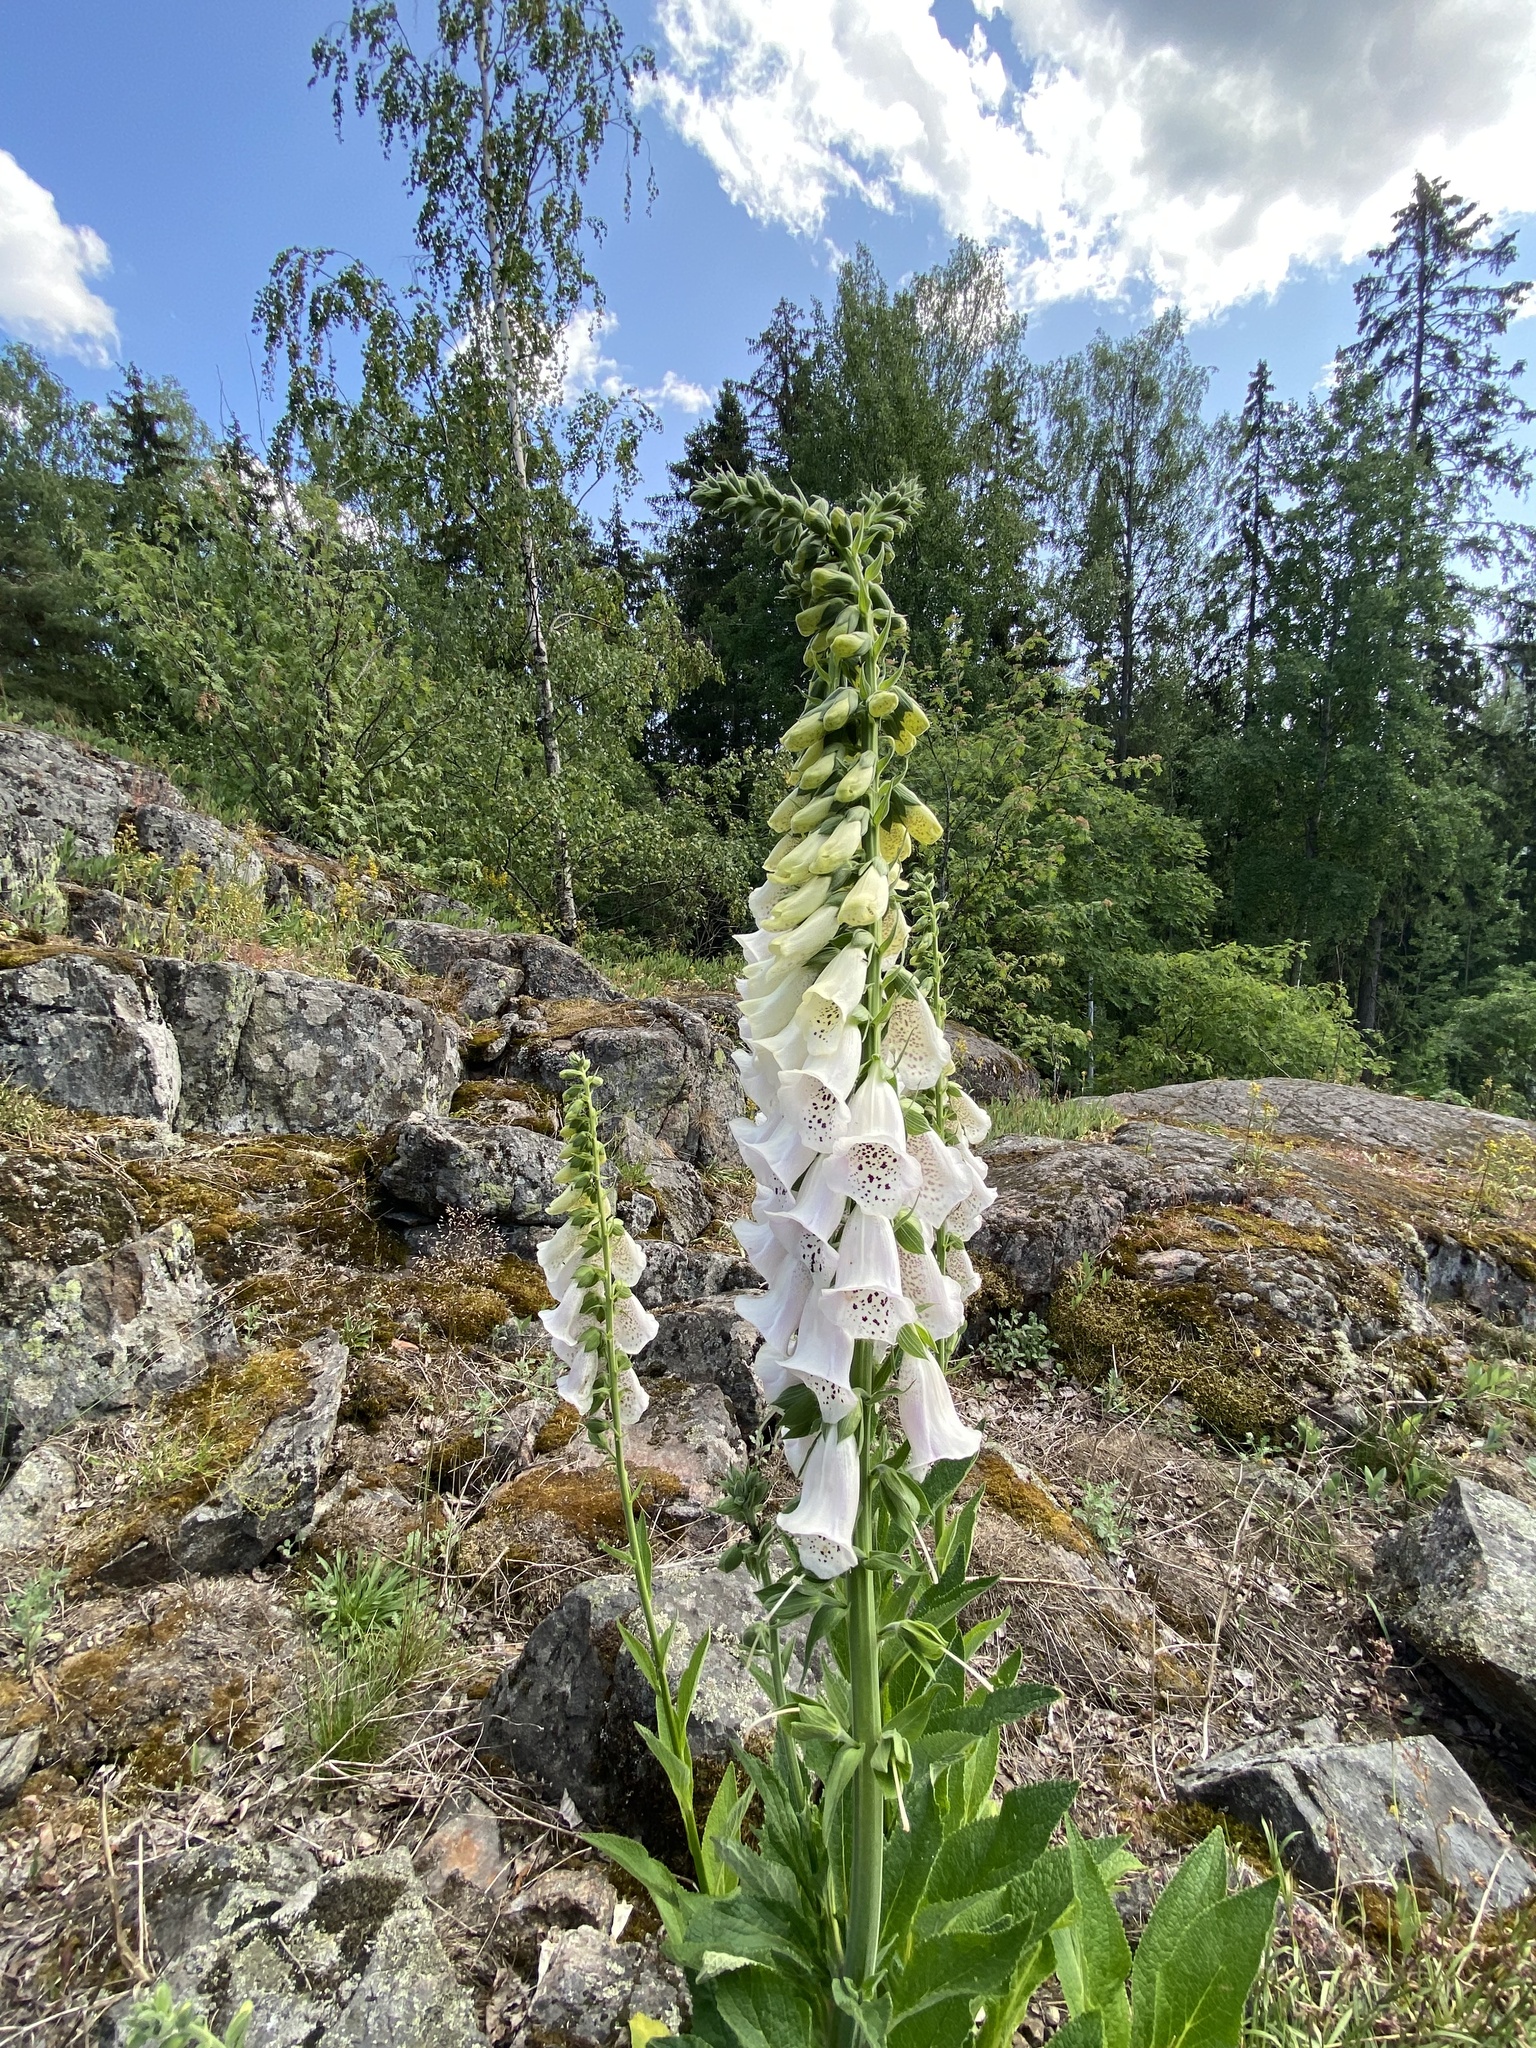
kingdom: Plantae
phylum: Tracheophyta
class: Magnoliopsida
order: Lamiales
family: Plantaginaceae
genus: Digitalis
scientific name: Digitalis purpurea
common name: Foxglove
